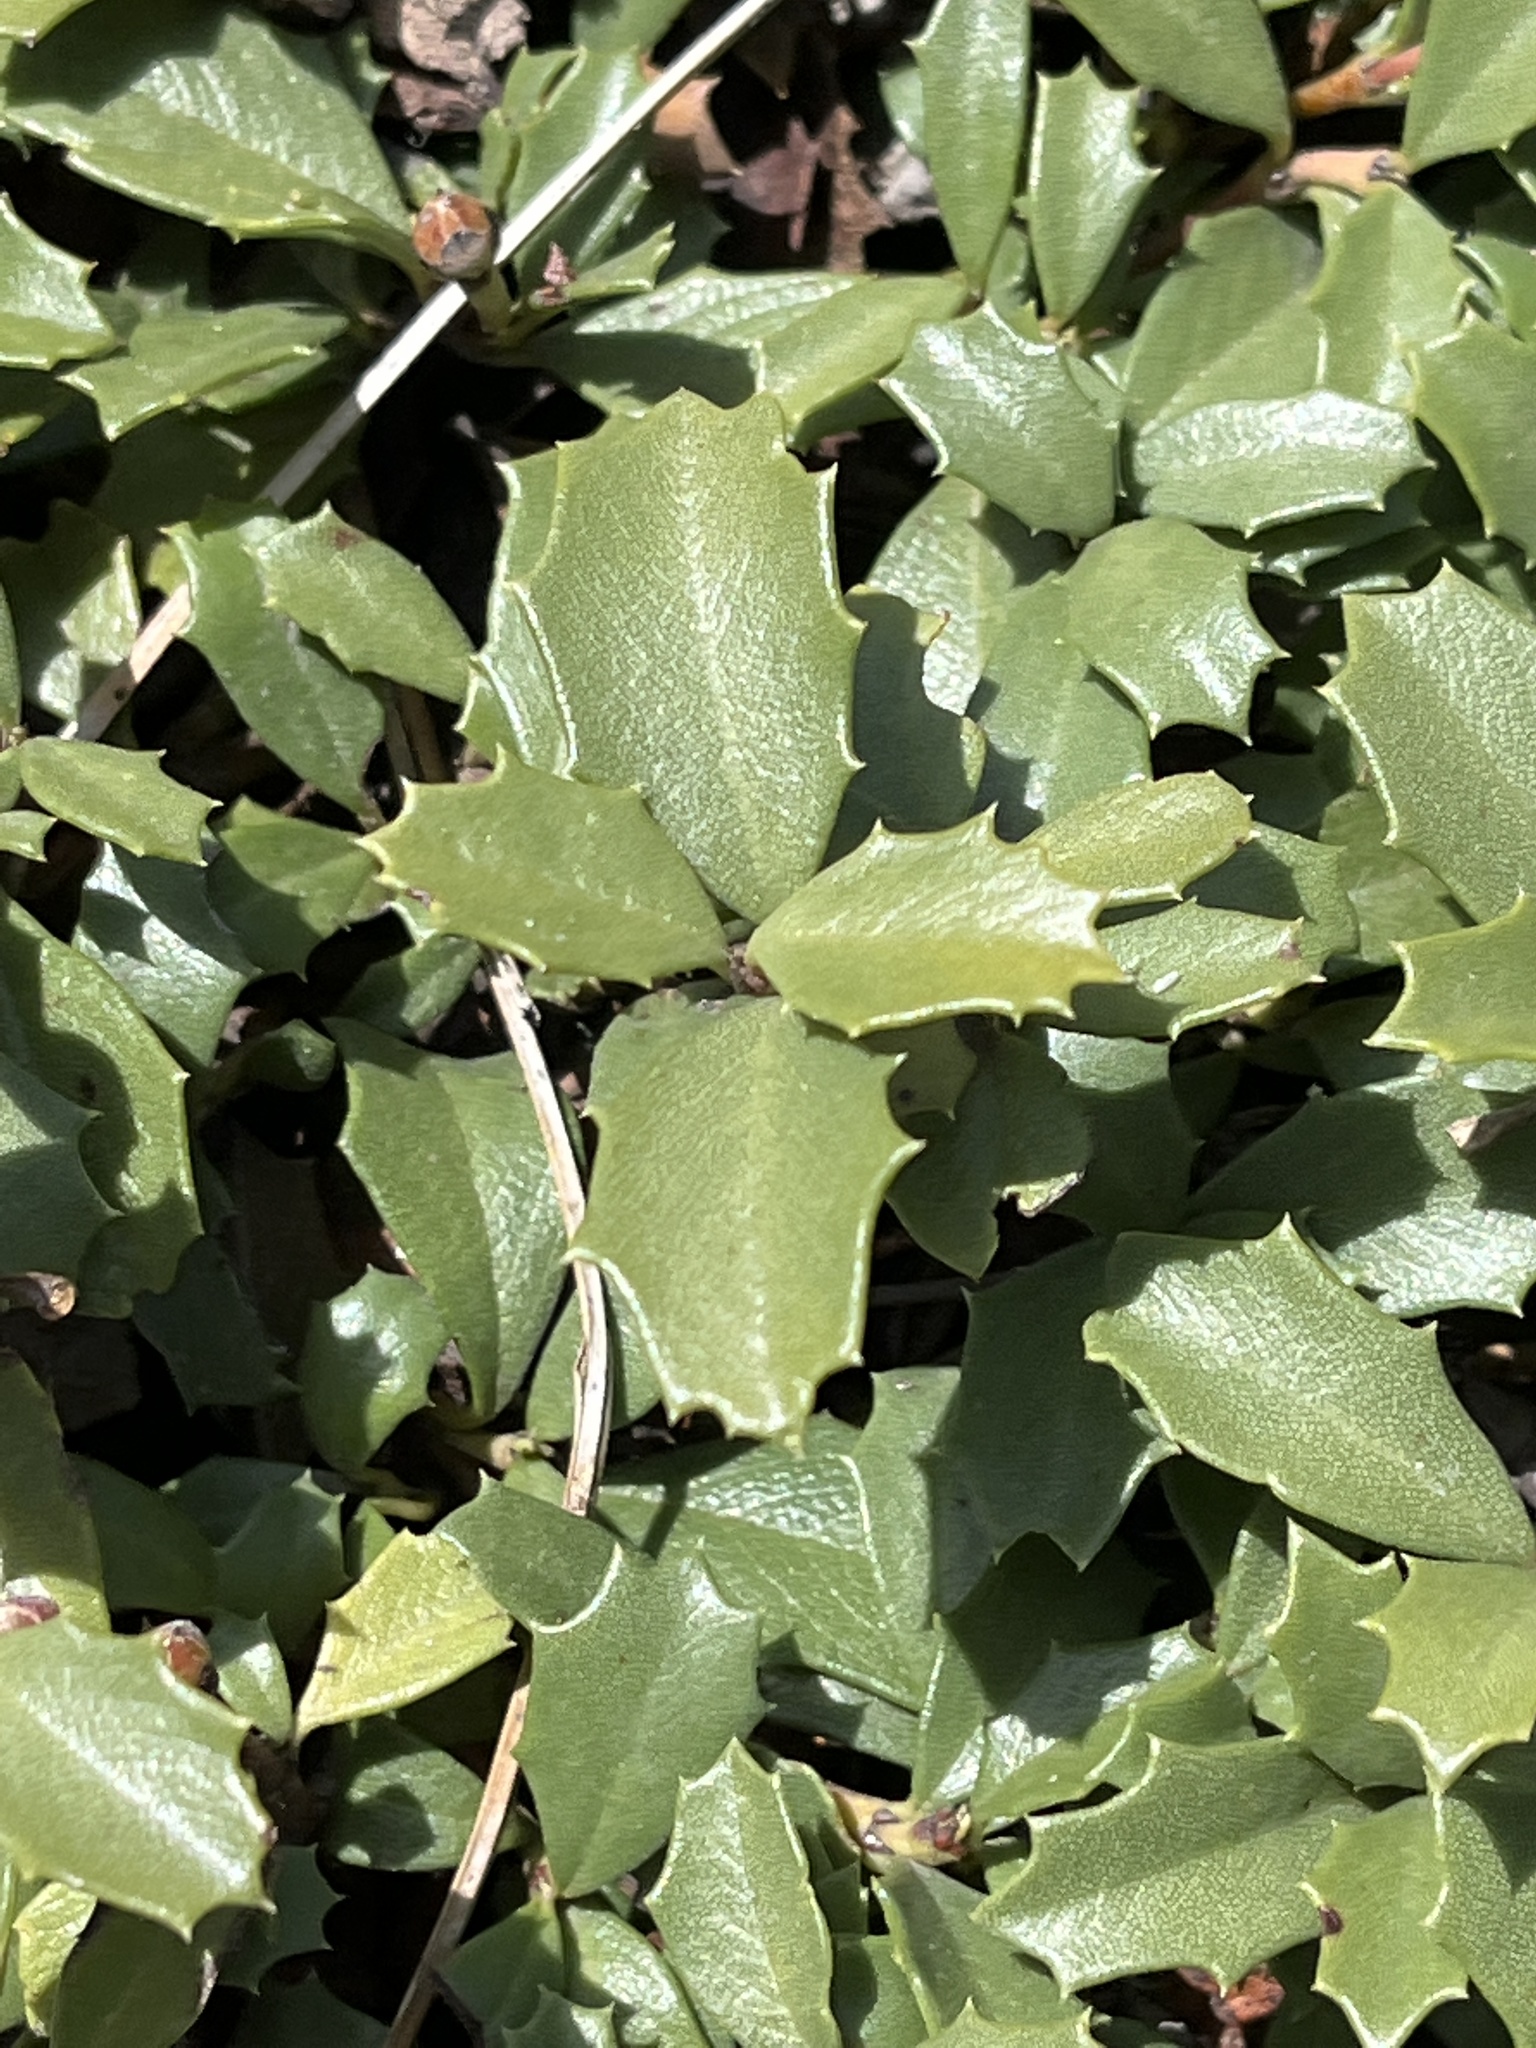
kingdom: Plantae
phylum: Tracheophyta
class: Magnoliopsida
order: Rosales
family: Rhamnaceae
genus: Ceanothus
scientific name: Ceanothus prostratus
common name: Mahala-mat
